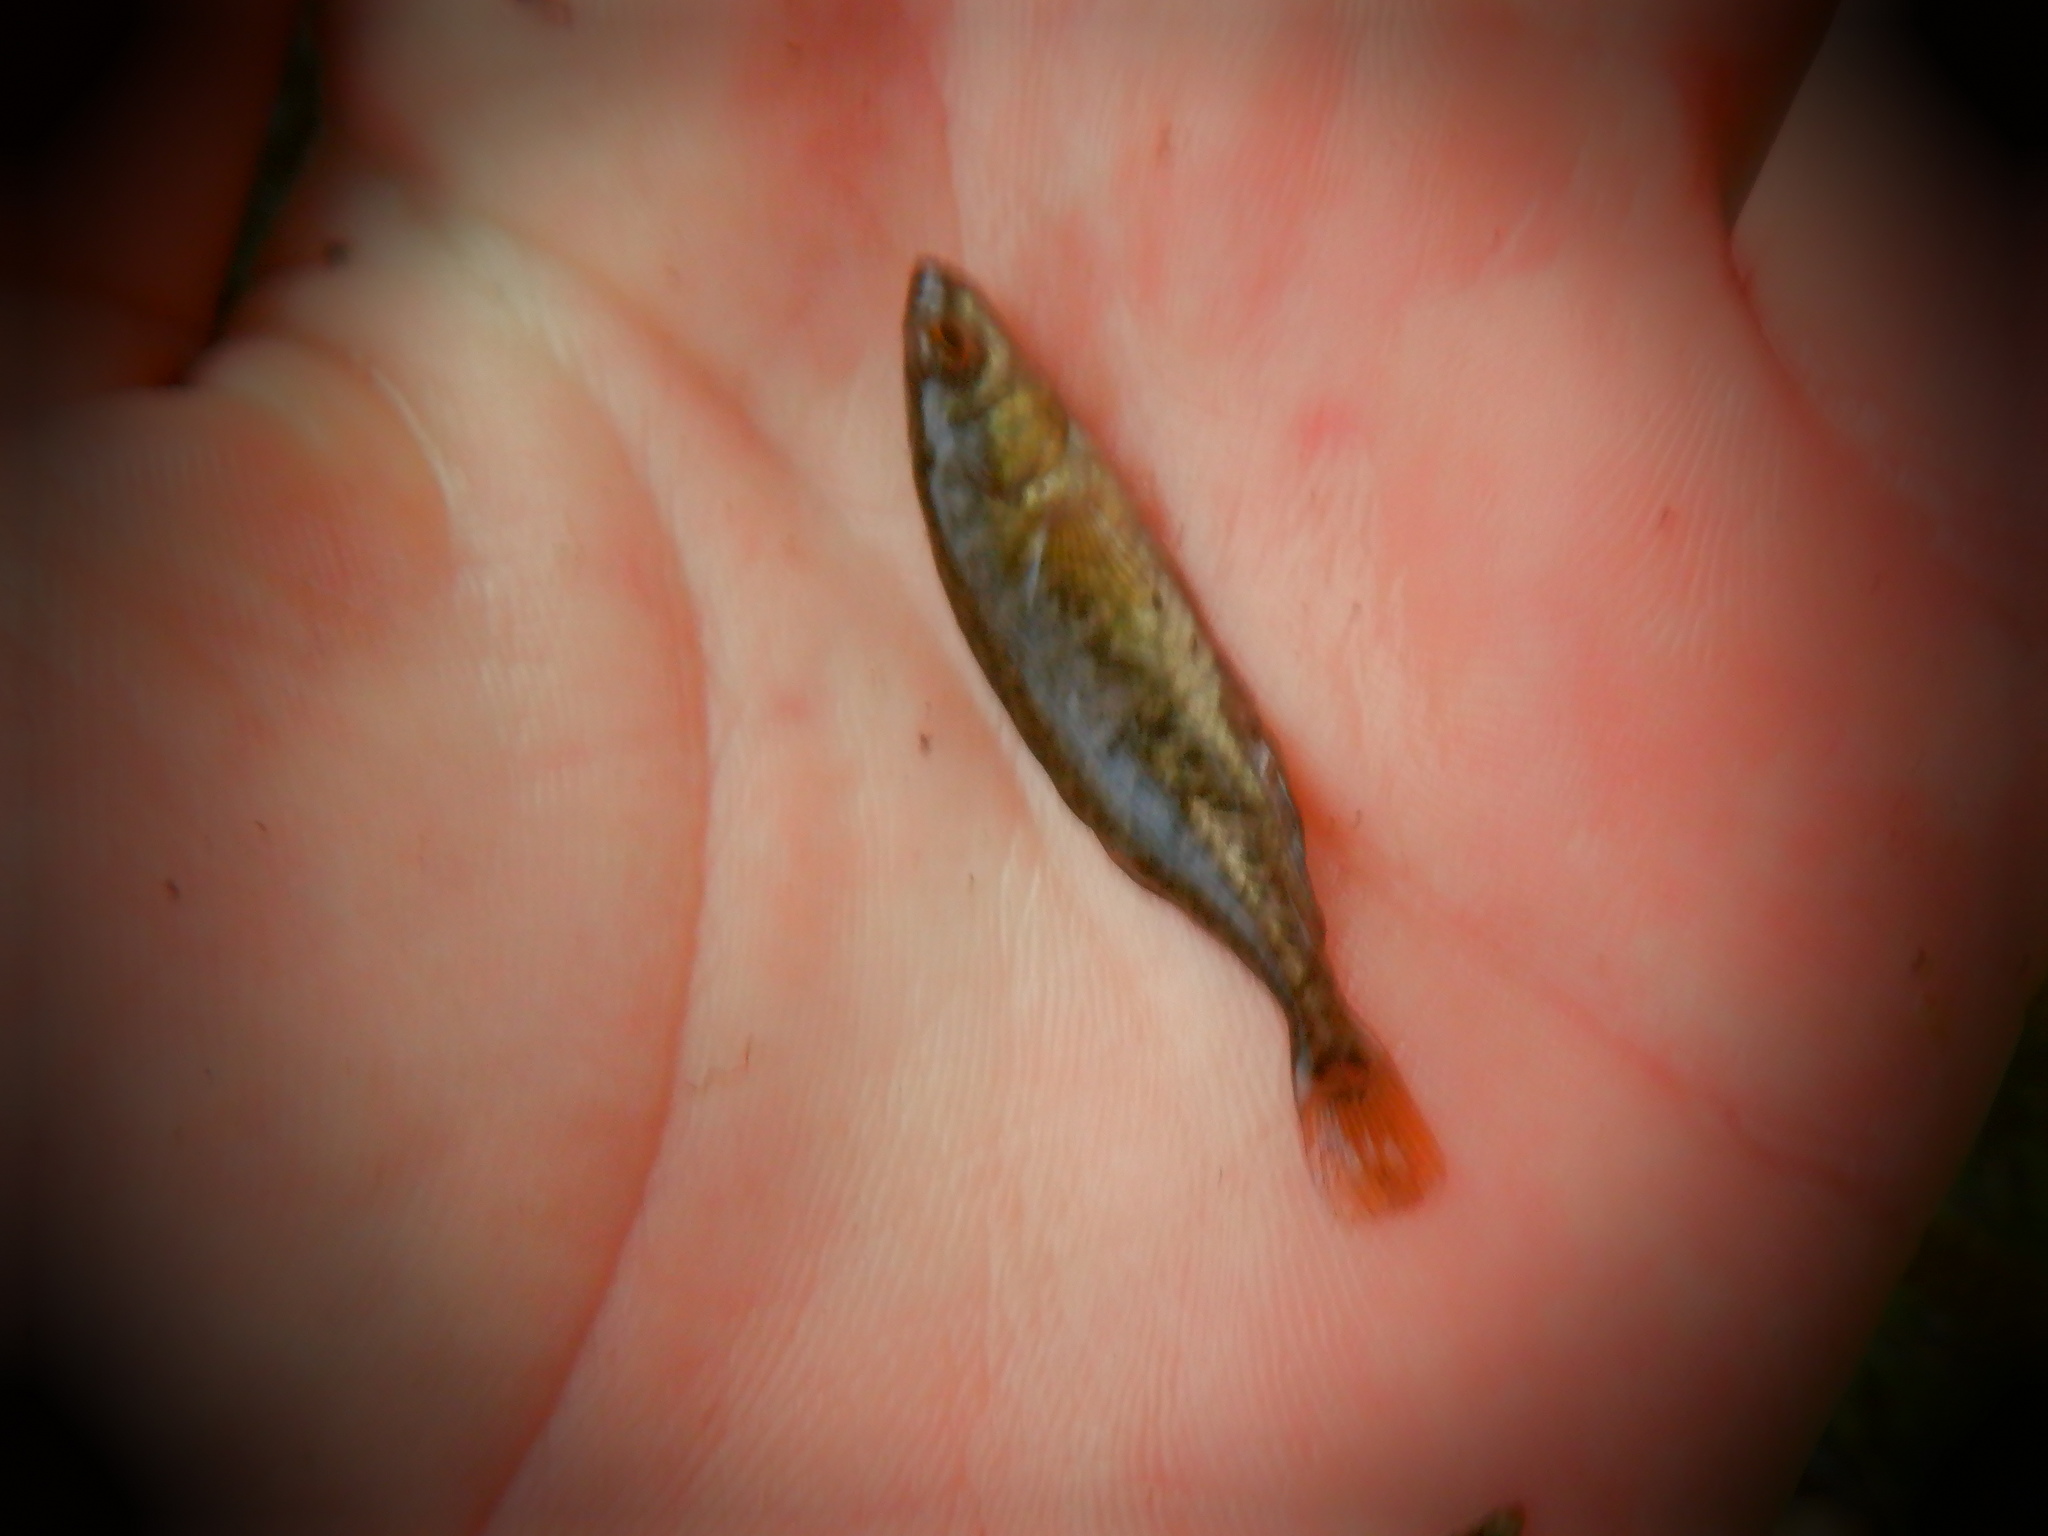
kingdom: Animalia
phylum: Chordata
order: Gasterosteiformes
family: Gasterosteidae
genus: Culaea
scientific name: Culaea inconstans
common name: Brook stickleback
